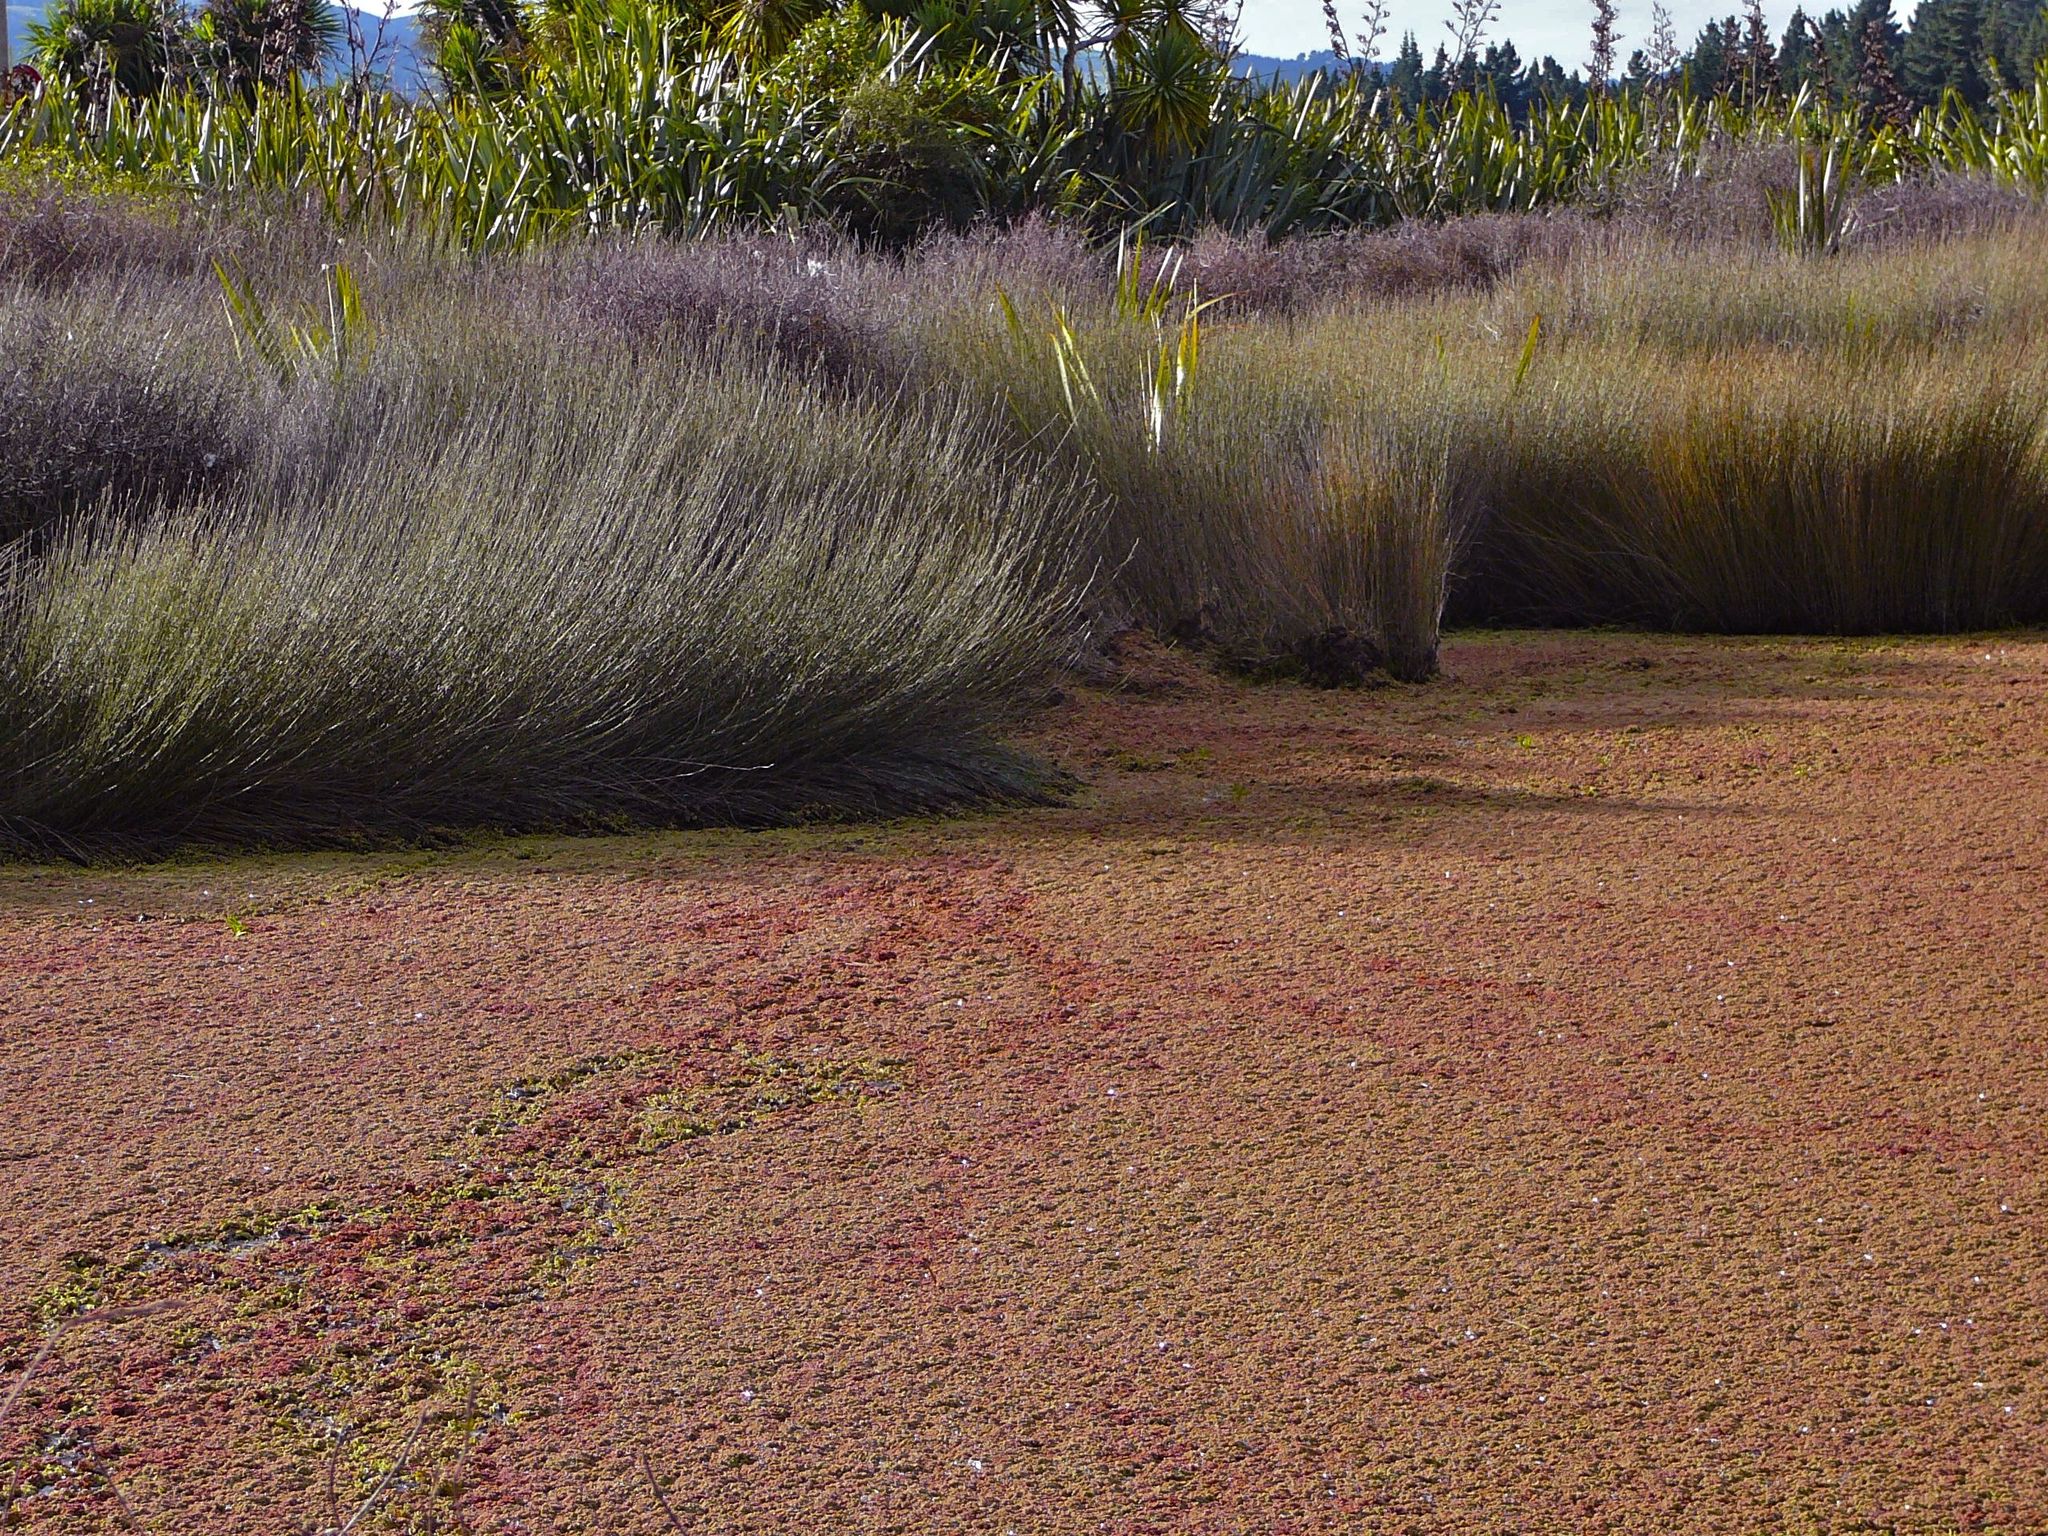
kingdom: Plantae
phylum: Tracheophyta
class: Polypodiopsida
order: Salviniales
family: Salviniaceae
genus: Azolla
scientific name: Azolla rubra
